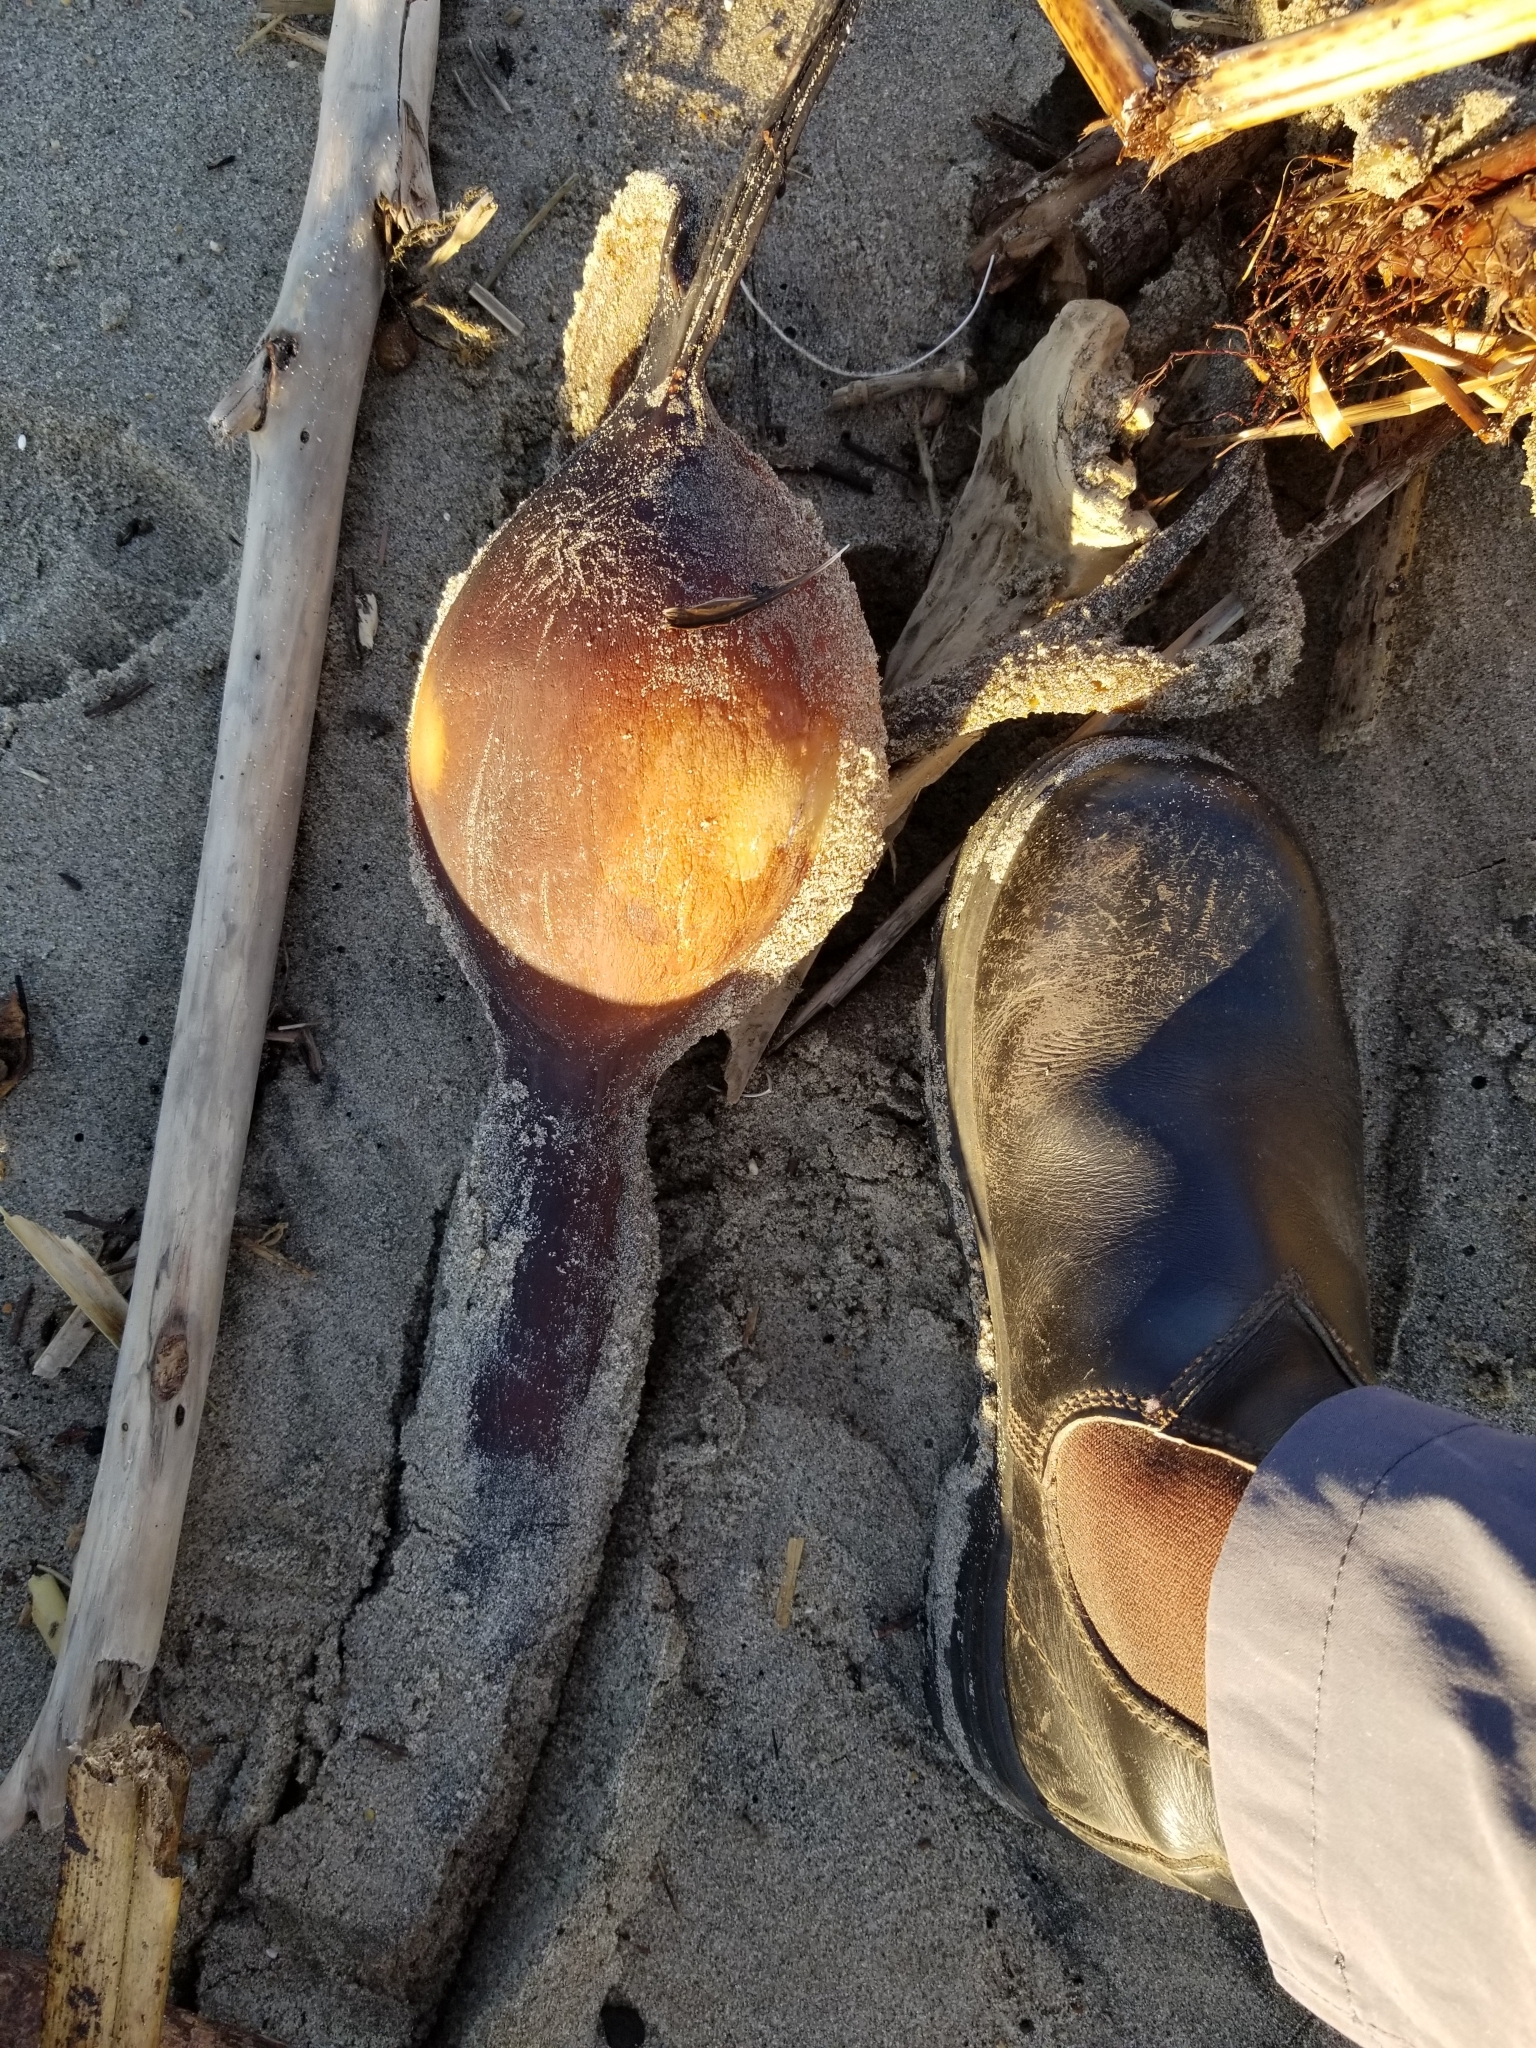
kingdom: Chromista
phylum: Ochrophyta
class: Phaeophyceae
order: Laminariales
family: Laminariaceae
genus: Pelagophycus
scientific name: Pelagophycus porra
